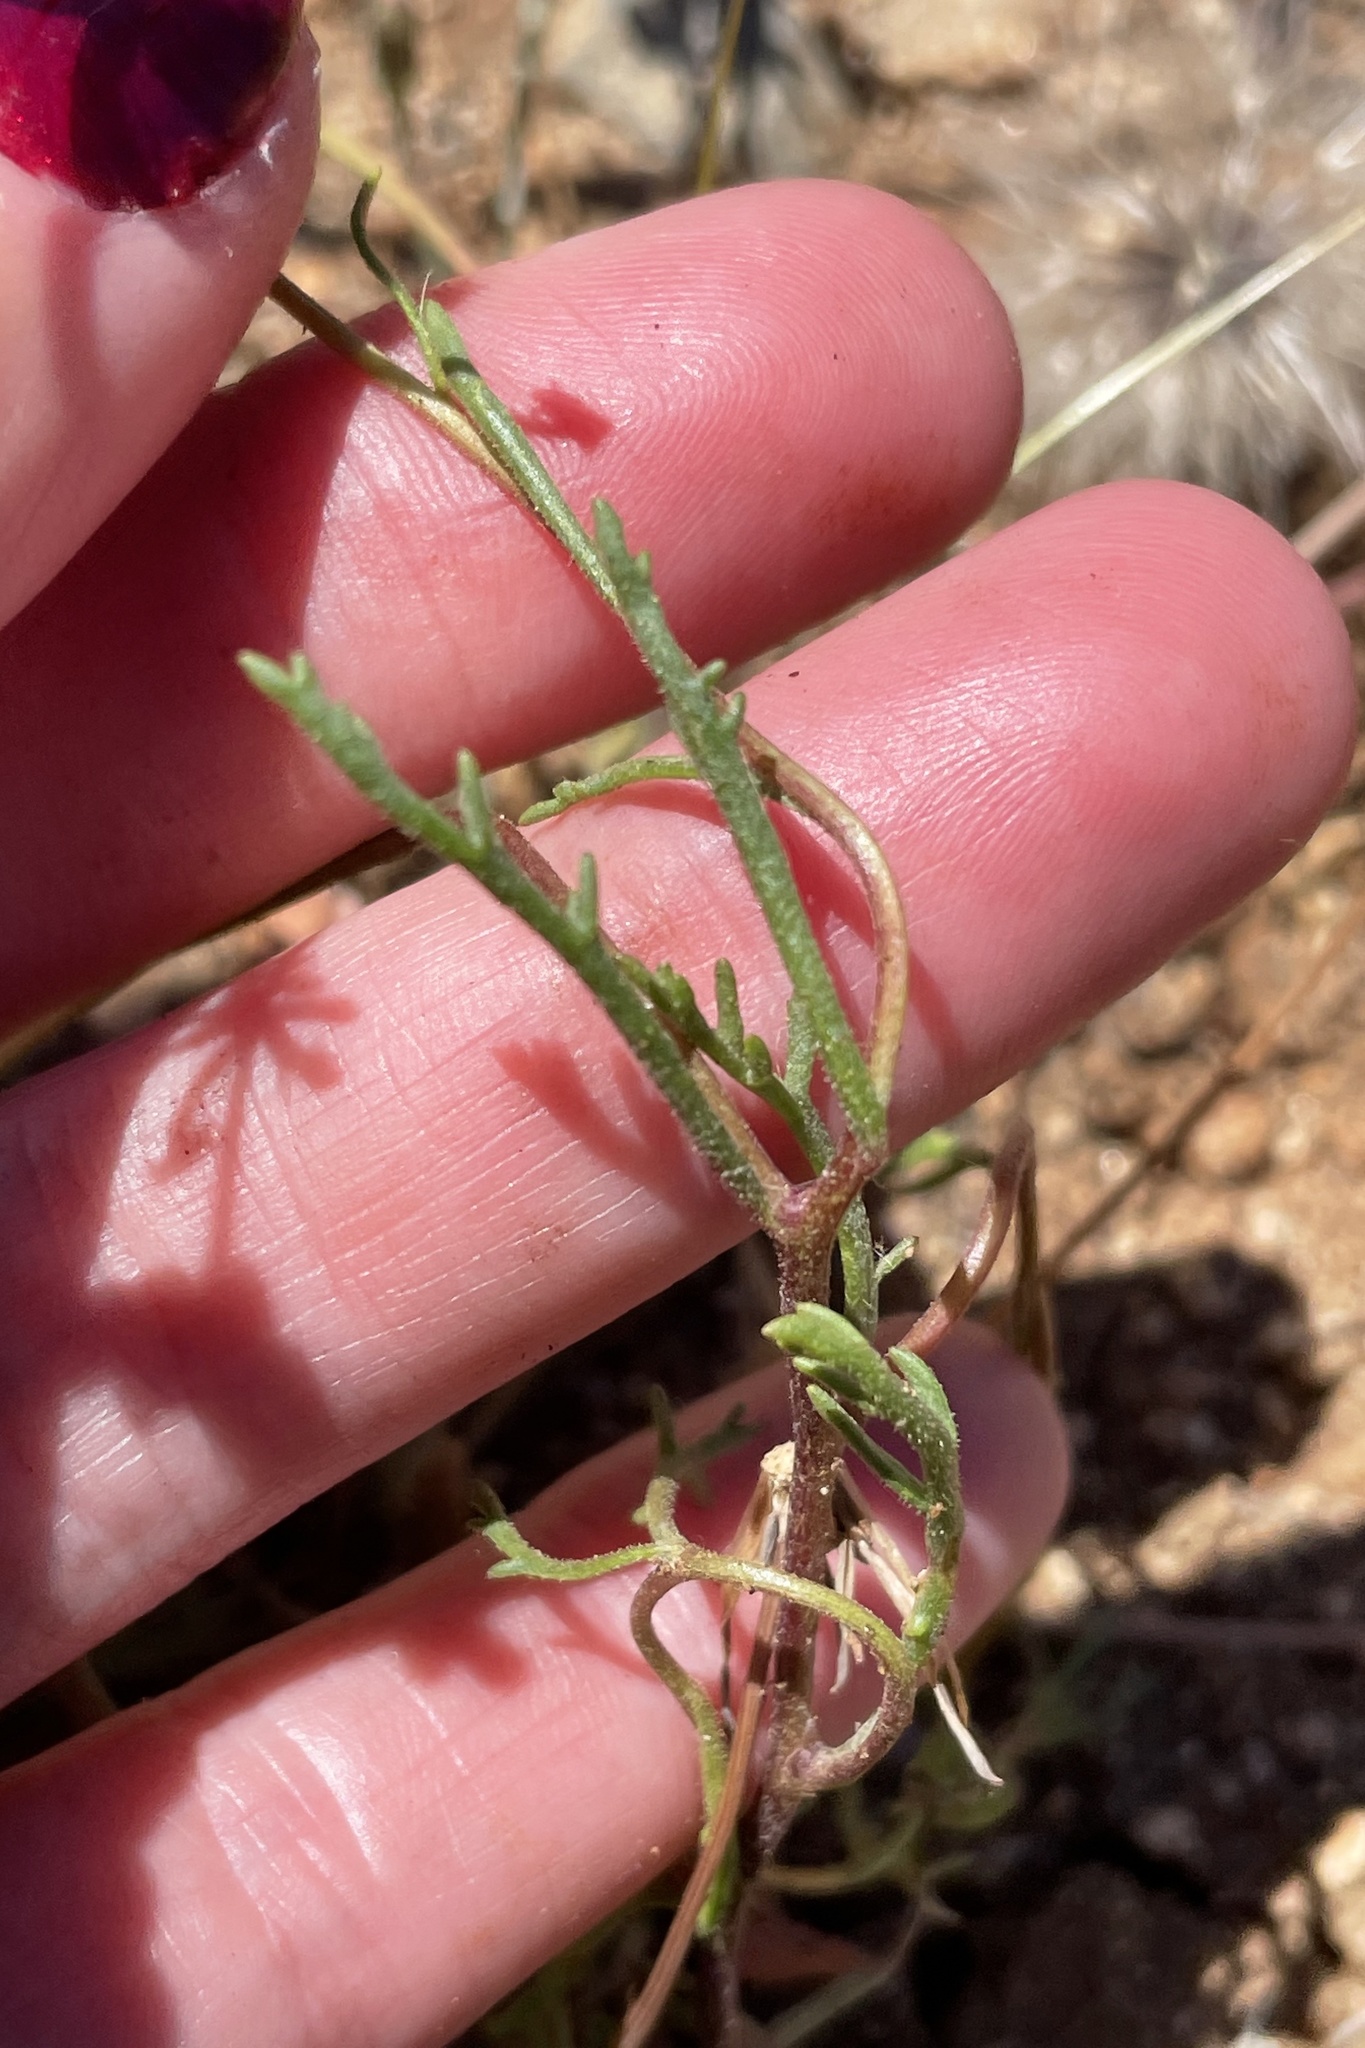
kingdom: Plantae
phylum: Tracheophyta
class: Magnoliopsida
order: Asterales
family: Asteraceae
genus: Chaenactis
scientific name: Chaenactis glabriuscula
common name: Yellow pincushion
